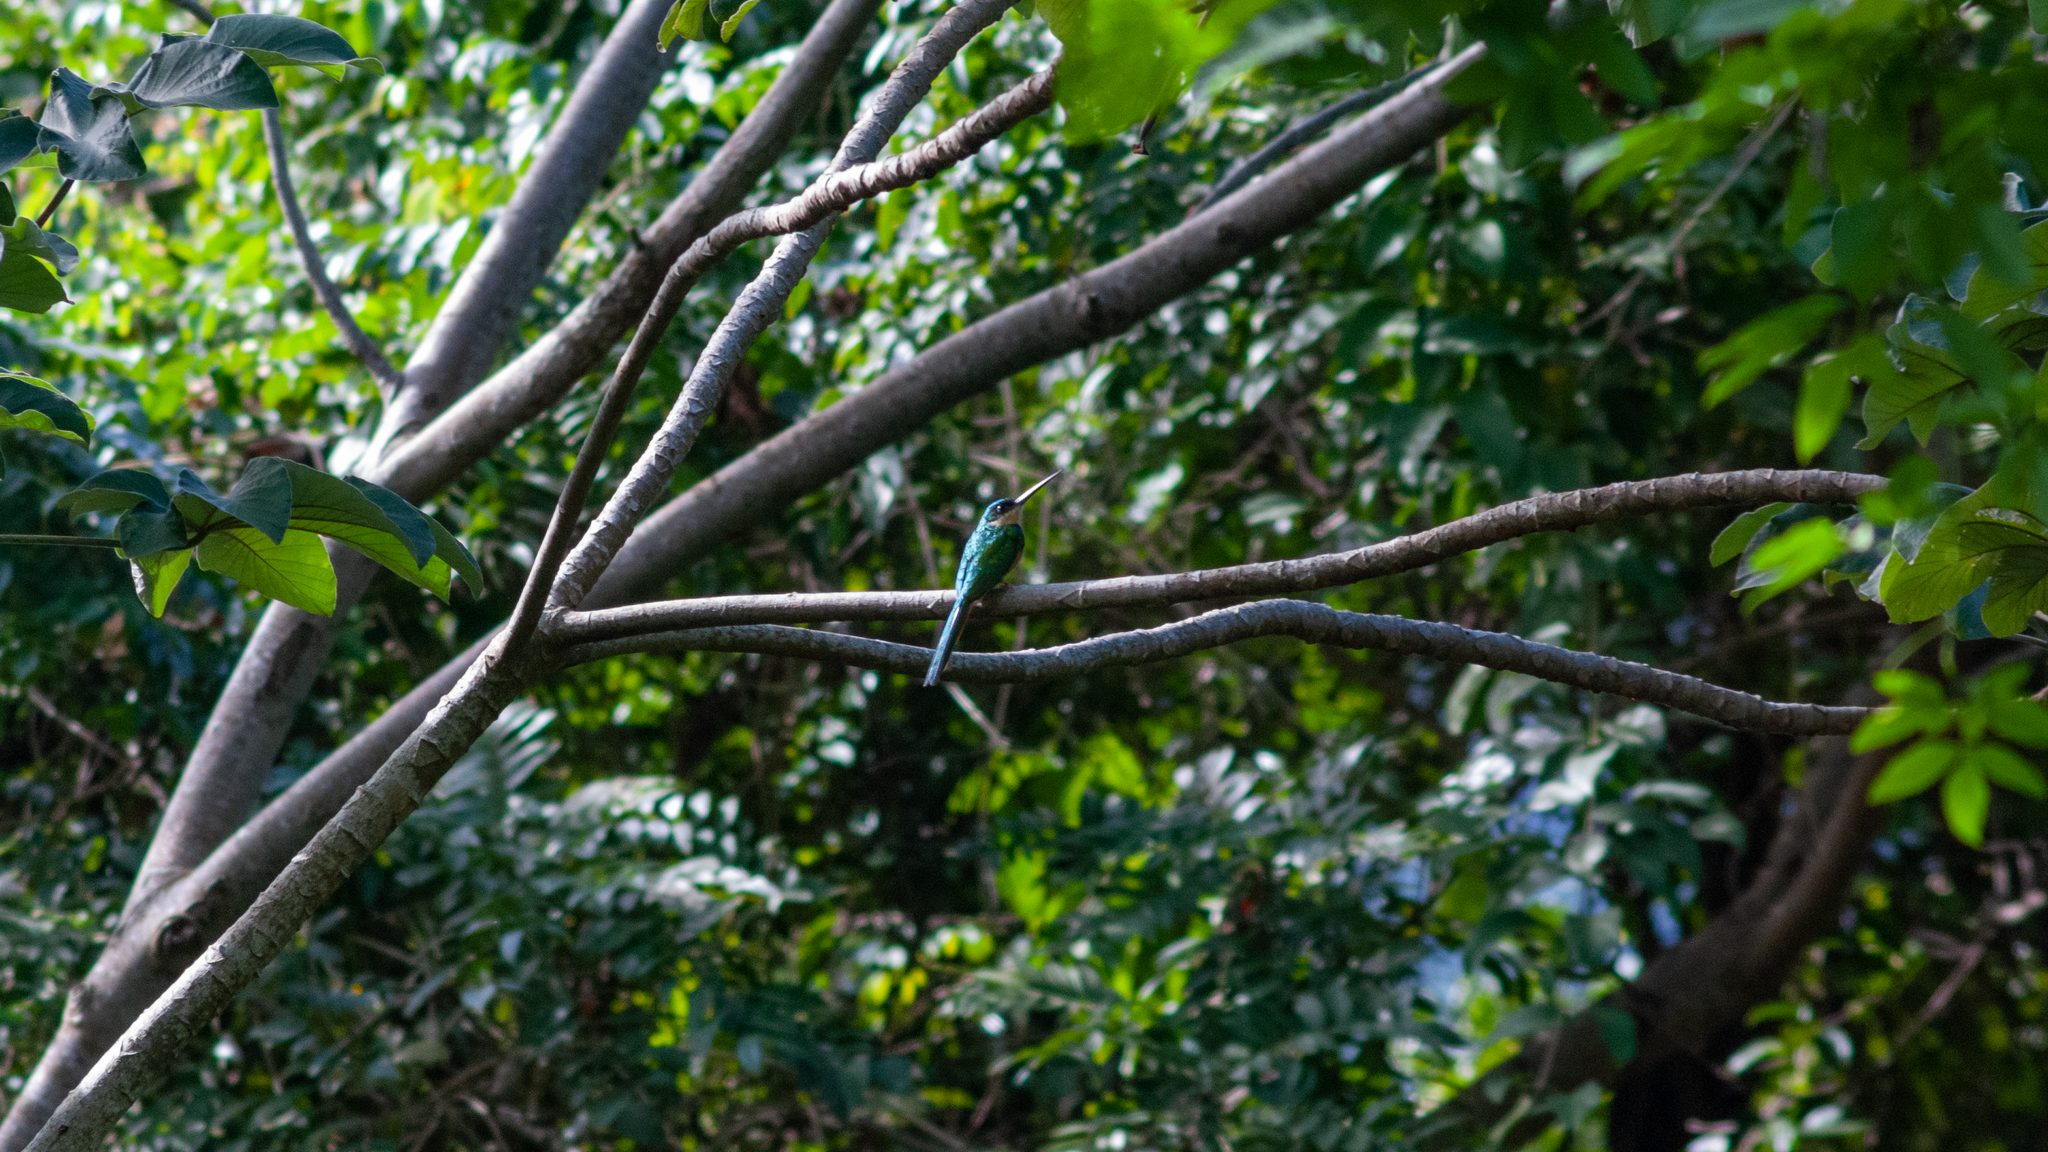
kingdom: Animalia
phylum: Chordata
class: Aves
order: Piciformes
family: Galbulidae
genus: Galbula
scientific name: Galbula ruficauda
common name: Rufous-tailed jacamar
